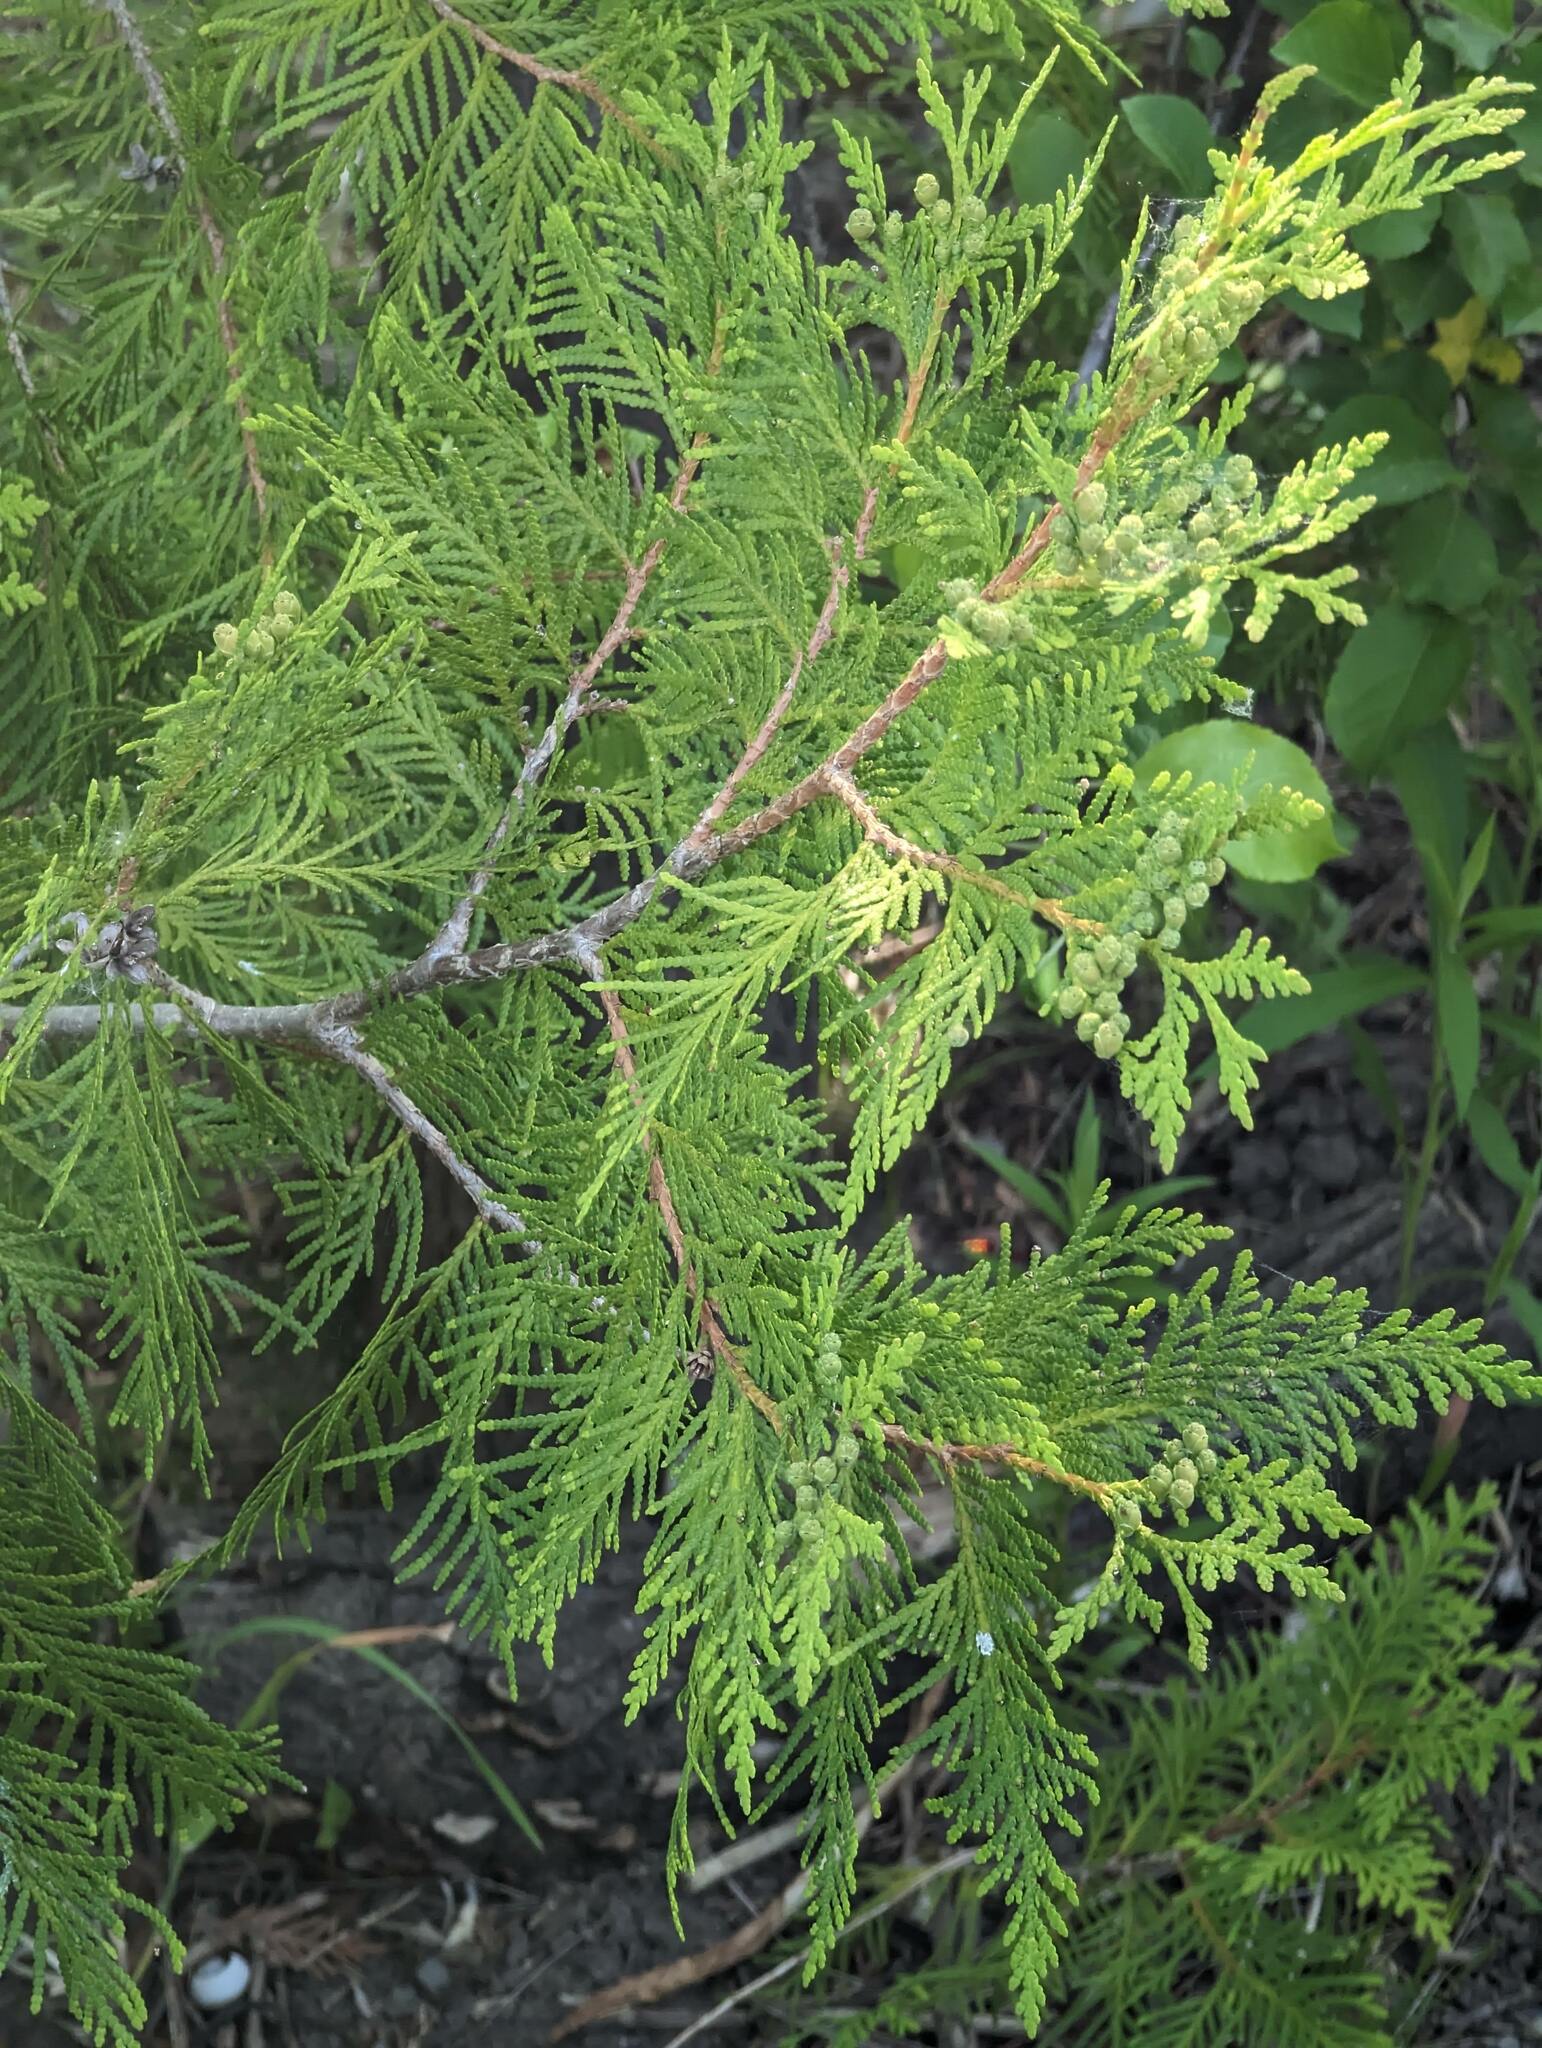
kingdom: Plantae
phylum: Tracheophyta
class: Pinopsida
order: Pinales
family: Cupressaceae
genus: Thuja
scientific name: Thuja occidentalis
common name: Northern white-cedar
